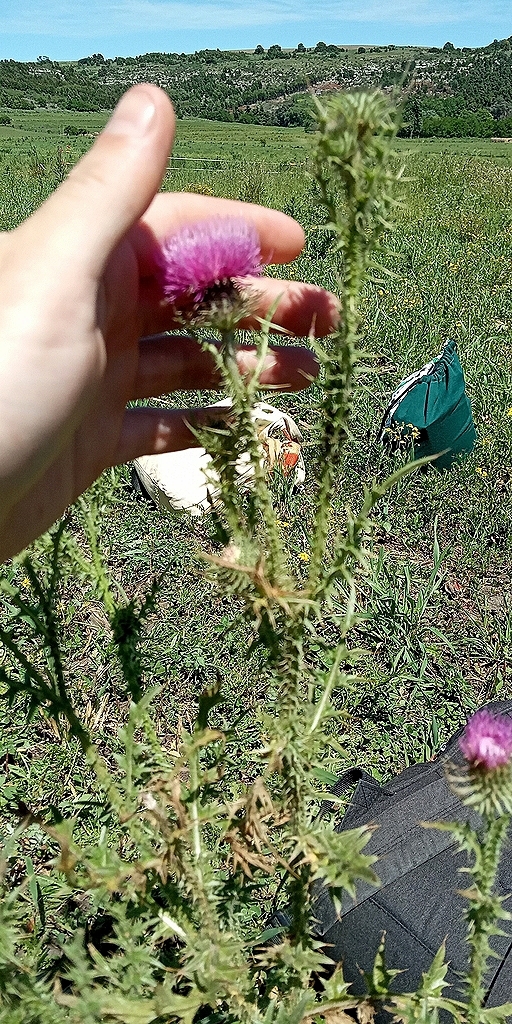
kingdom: Plantae
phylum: Tracheophyta
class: Magnoliopsida
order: Asterales
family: Asteraceae
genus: Carduus
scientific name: Carduus acanthoides
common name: Plumeless thistle
